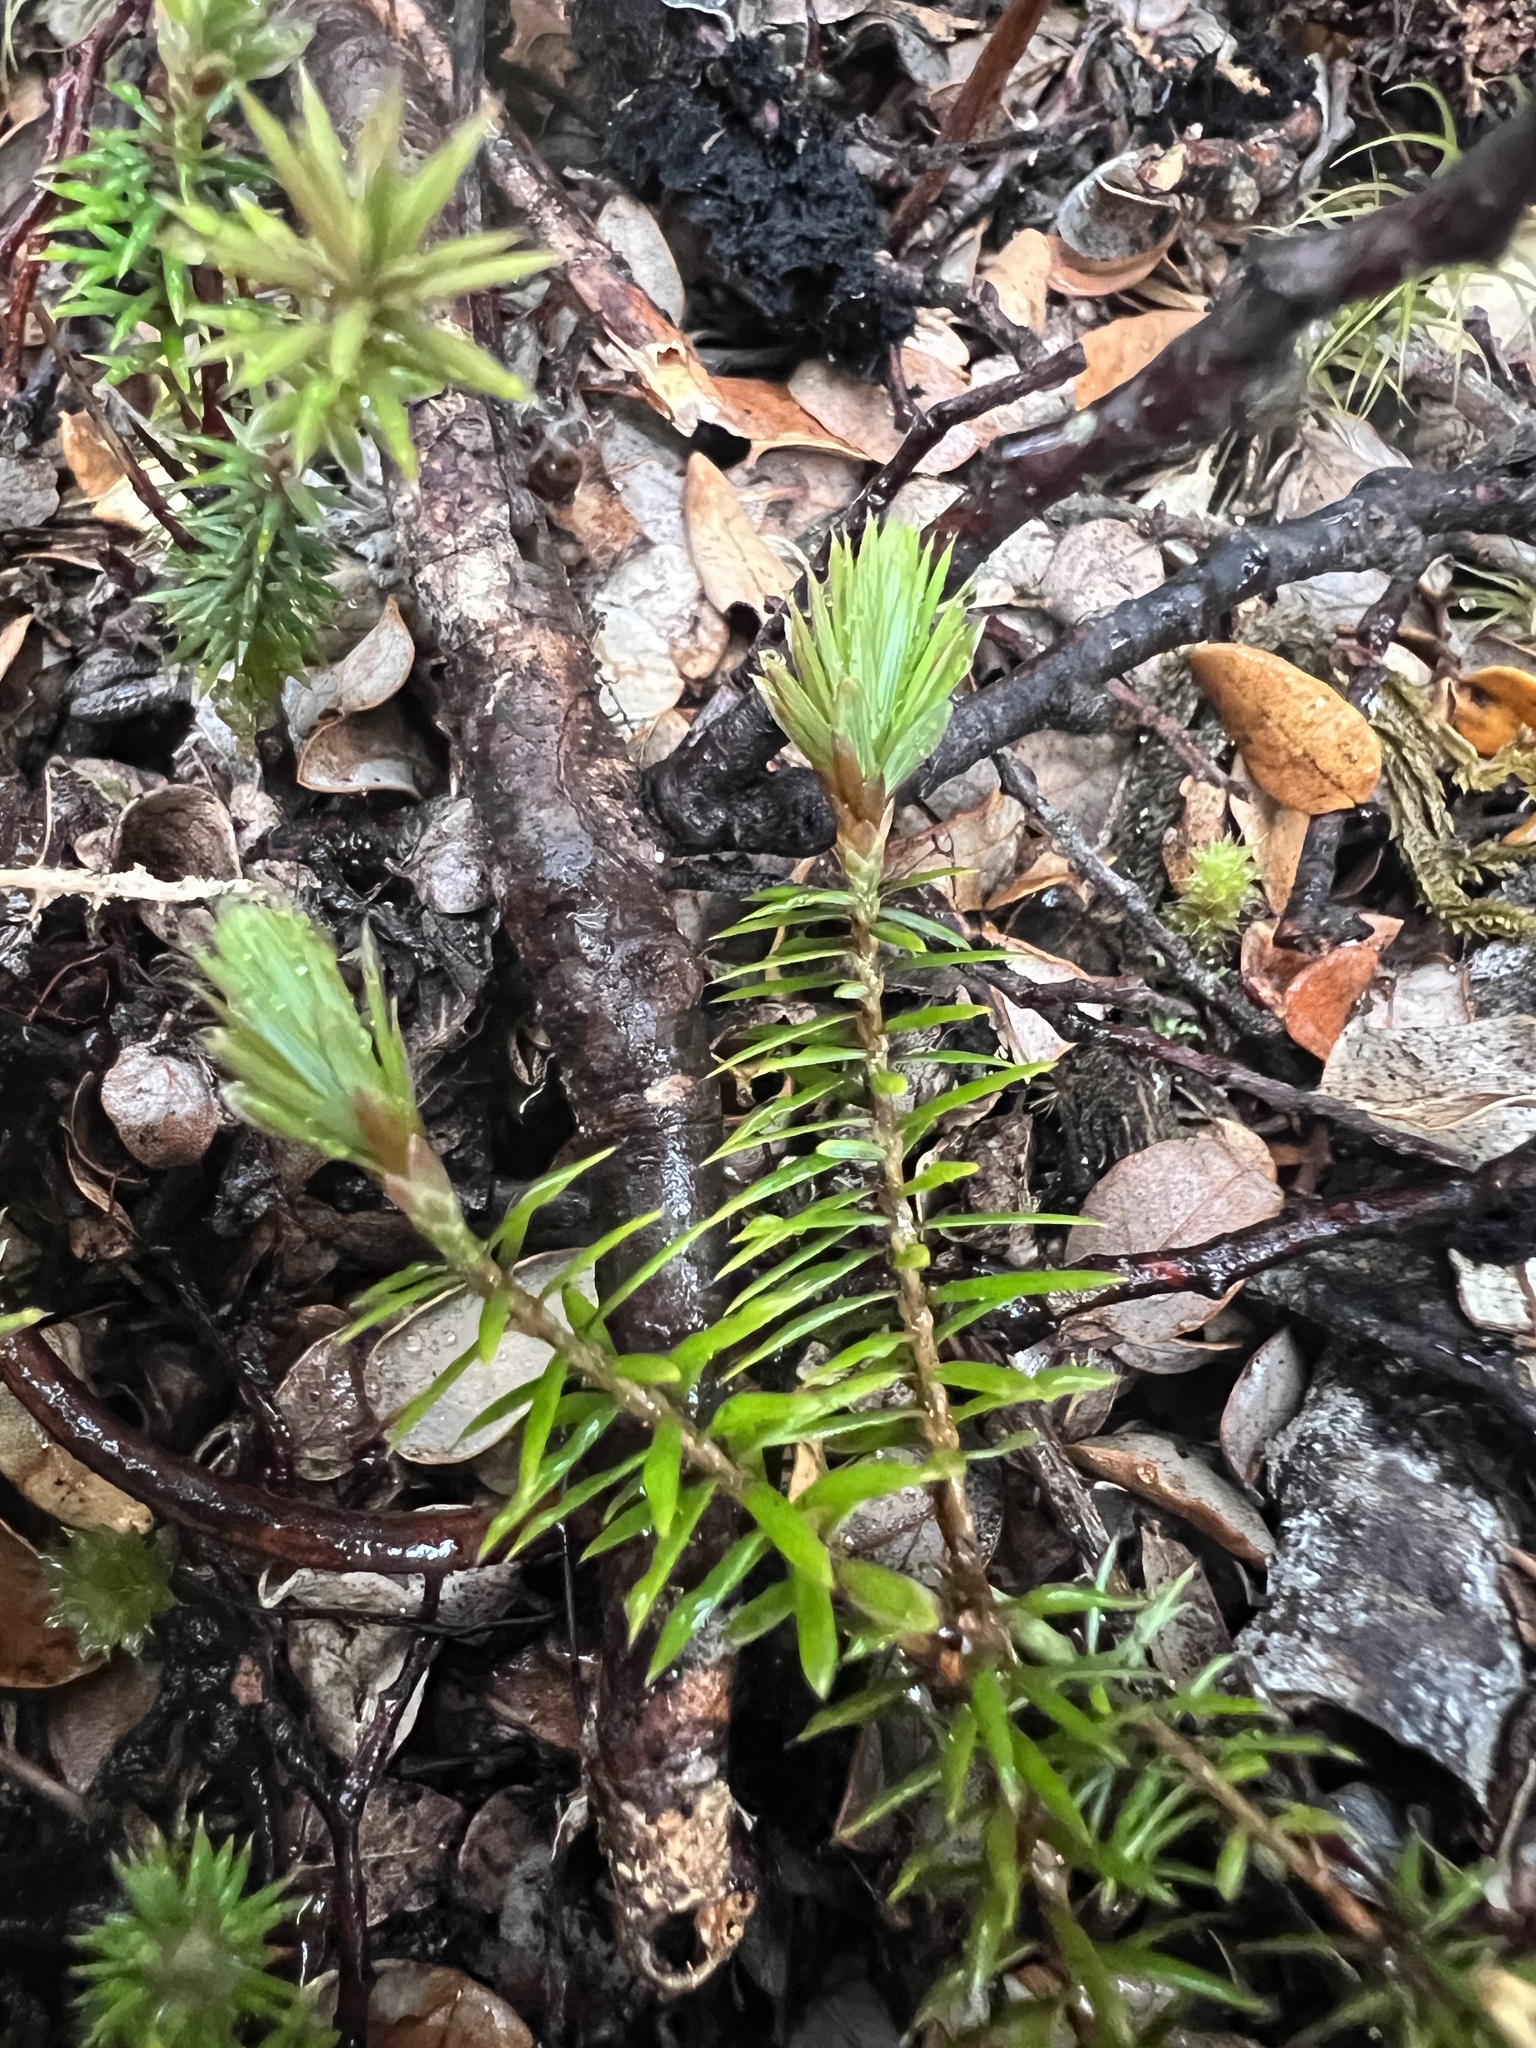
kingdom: Plantae
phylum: Tracheophyta
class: Magnoliopsida
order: Ericales
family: Ericaceae
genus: Leptecophylla
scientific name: Leptecophylla juniperina
